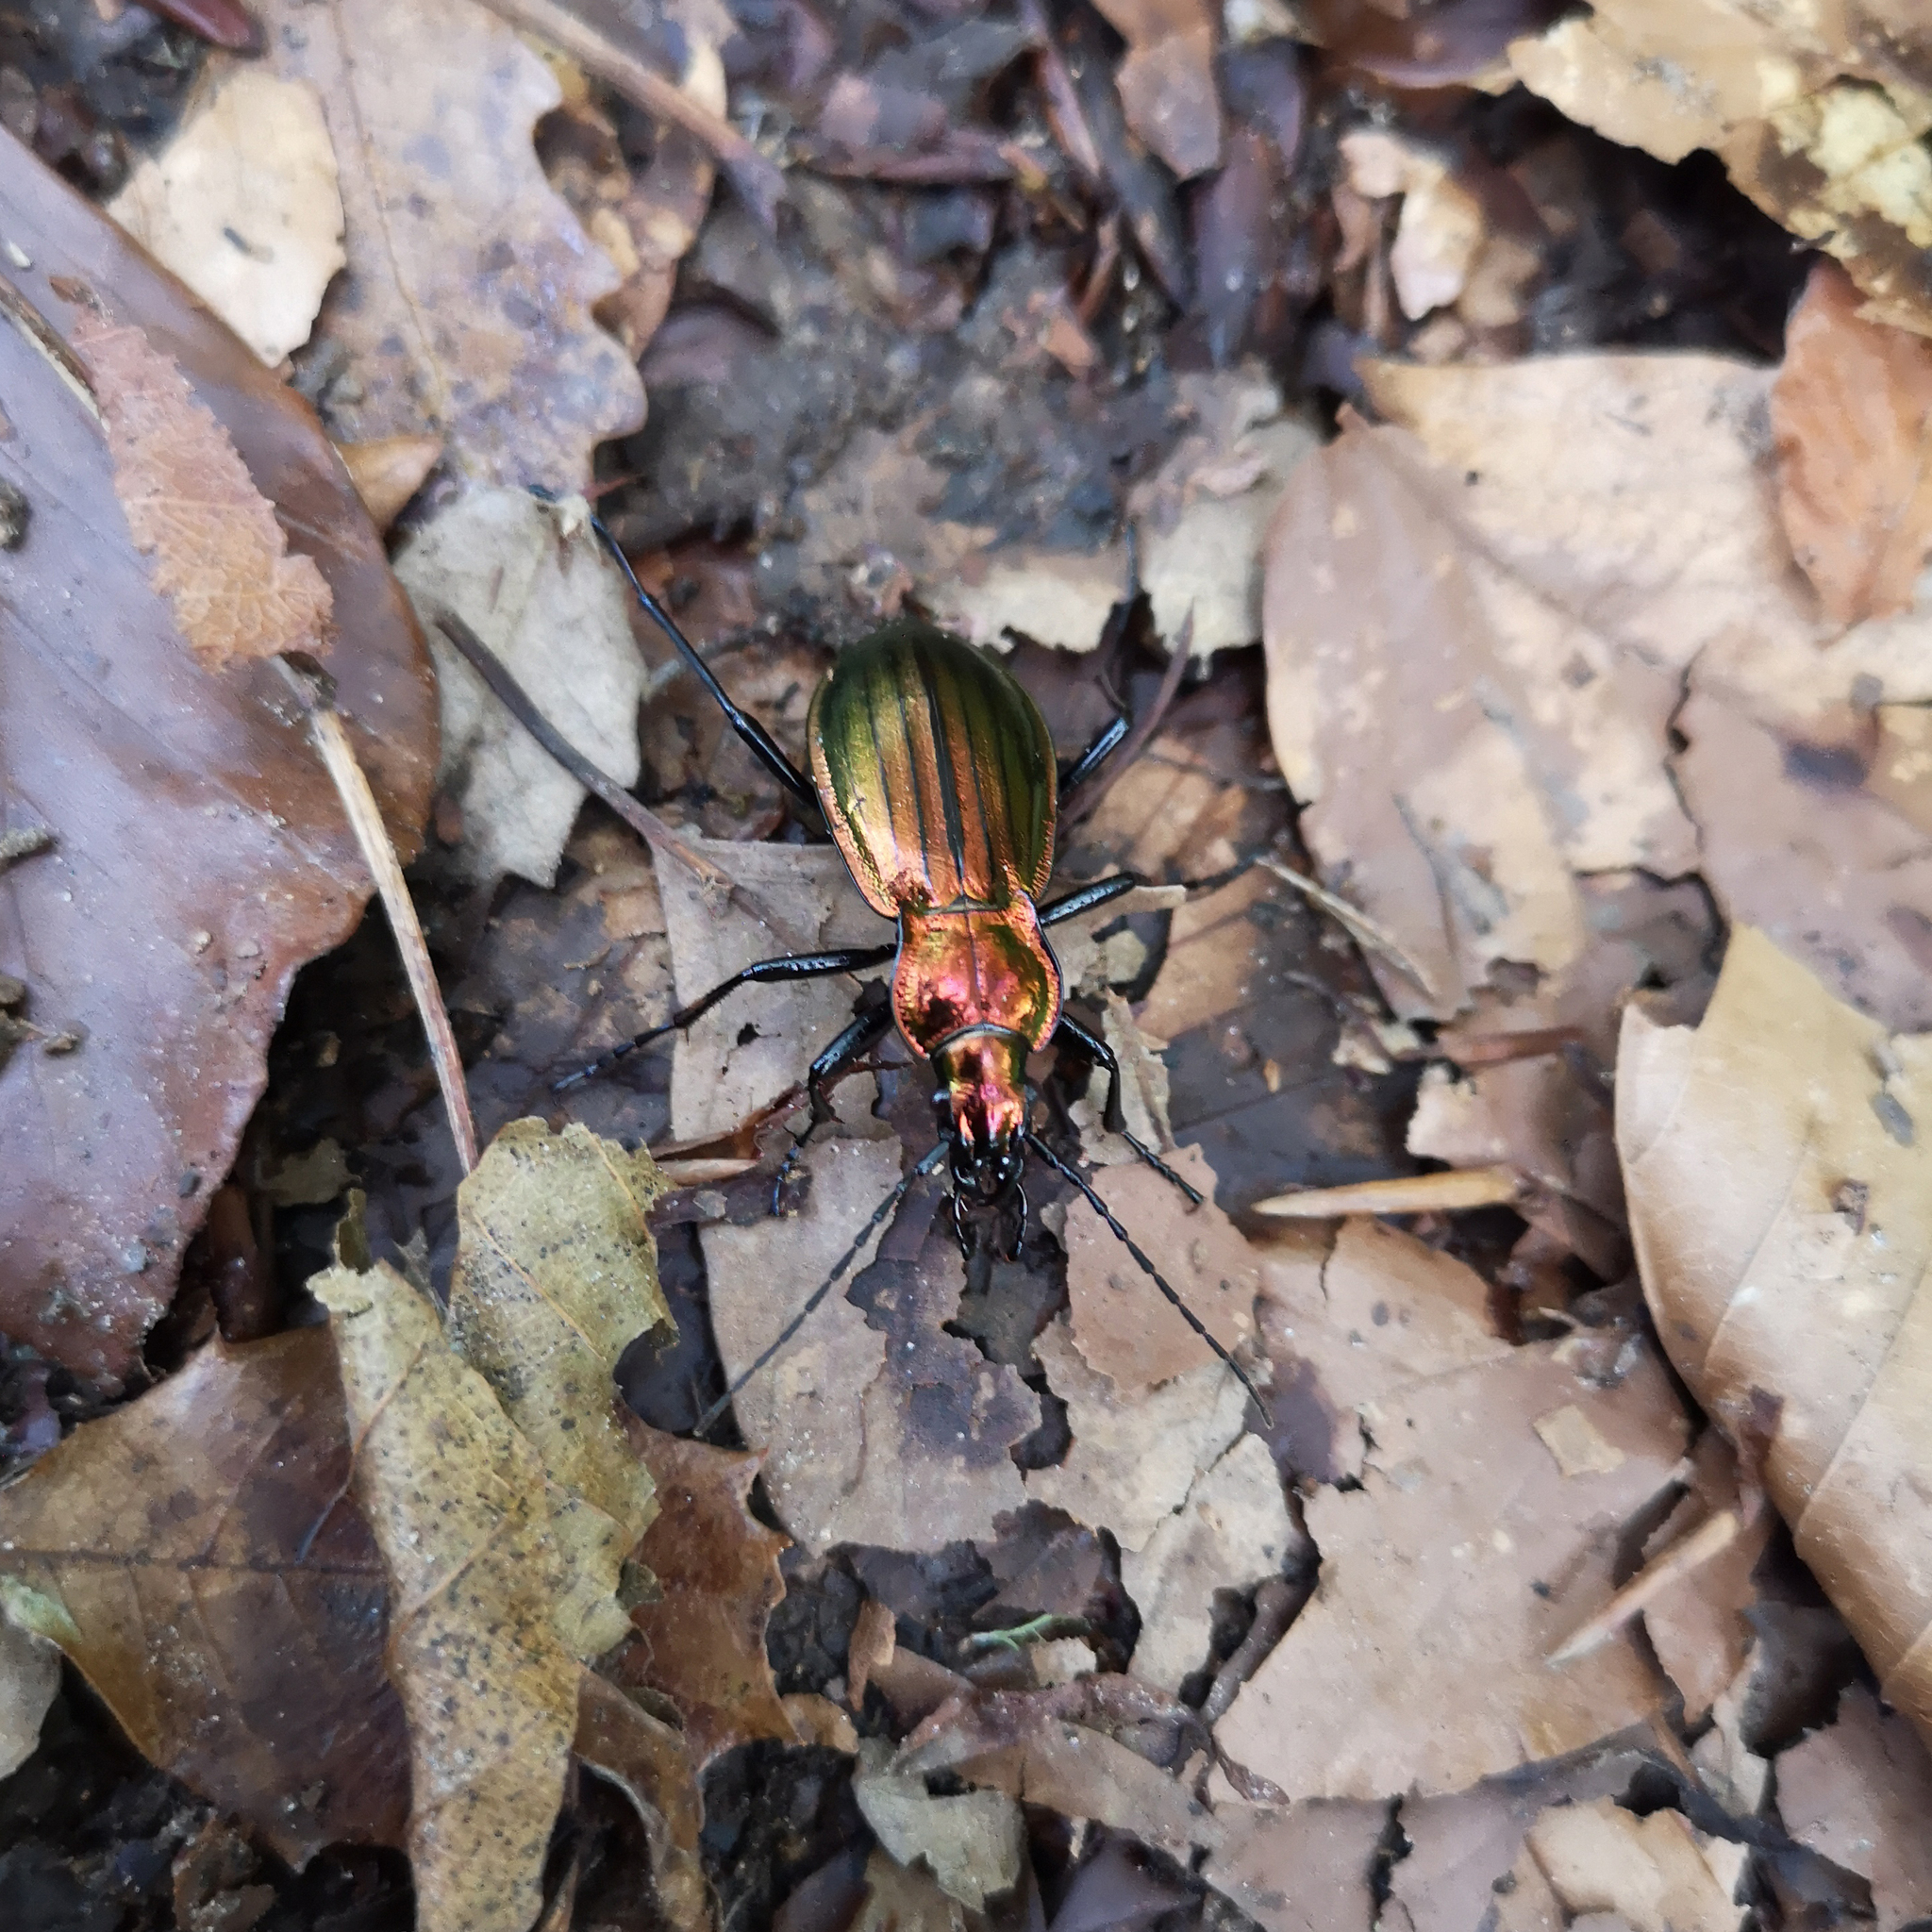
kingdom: Animalia
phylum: Arthropoda
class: Insecta
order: Coleoptera
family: Carabidae
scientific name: Carabidae
